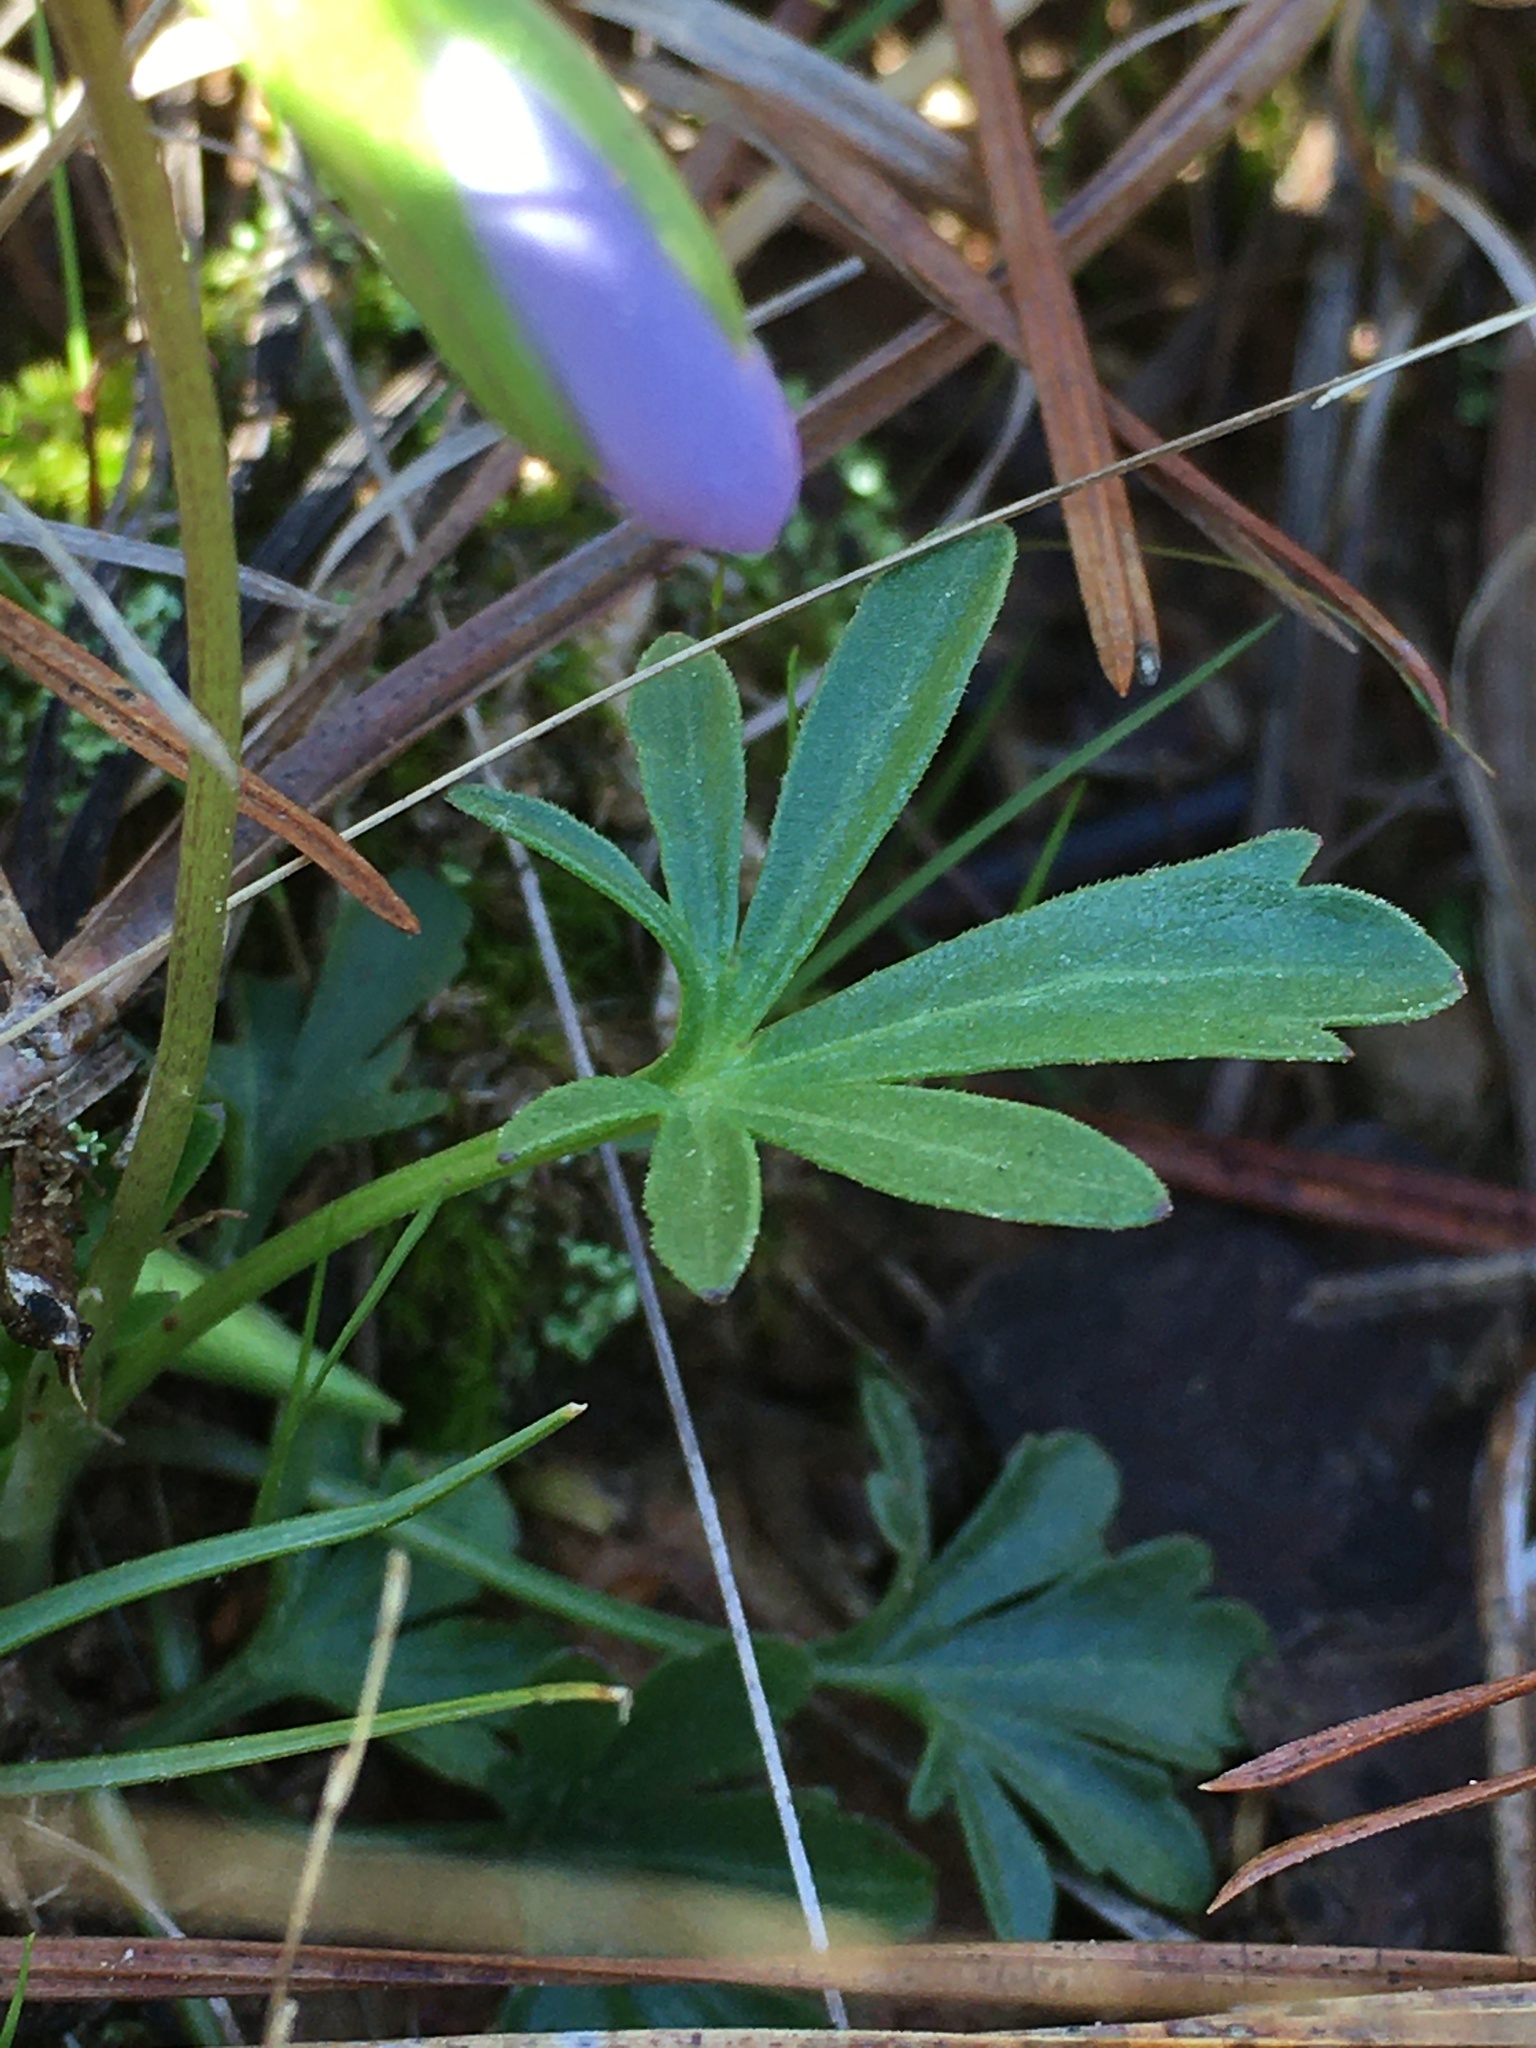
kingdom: Plantae
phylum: Tracheophyta
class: Magnoliopsida
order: Malpighiales
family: Violaceae
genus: Viola
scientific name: Viola pedata
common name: Pansy violet
